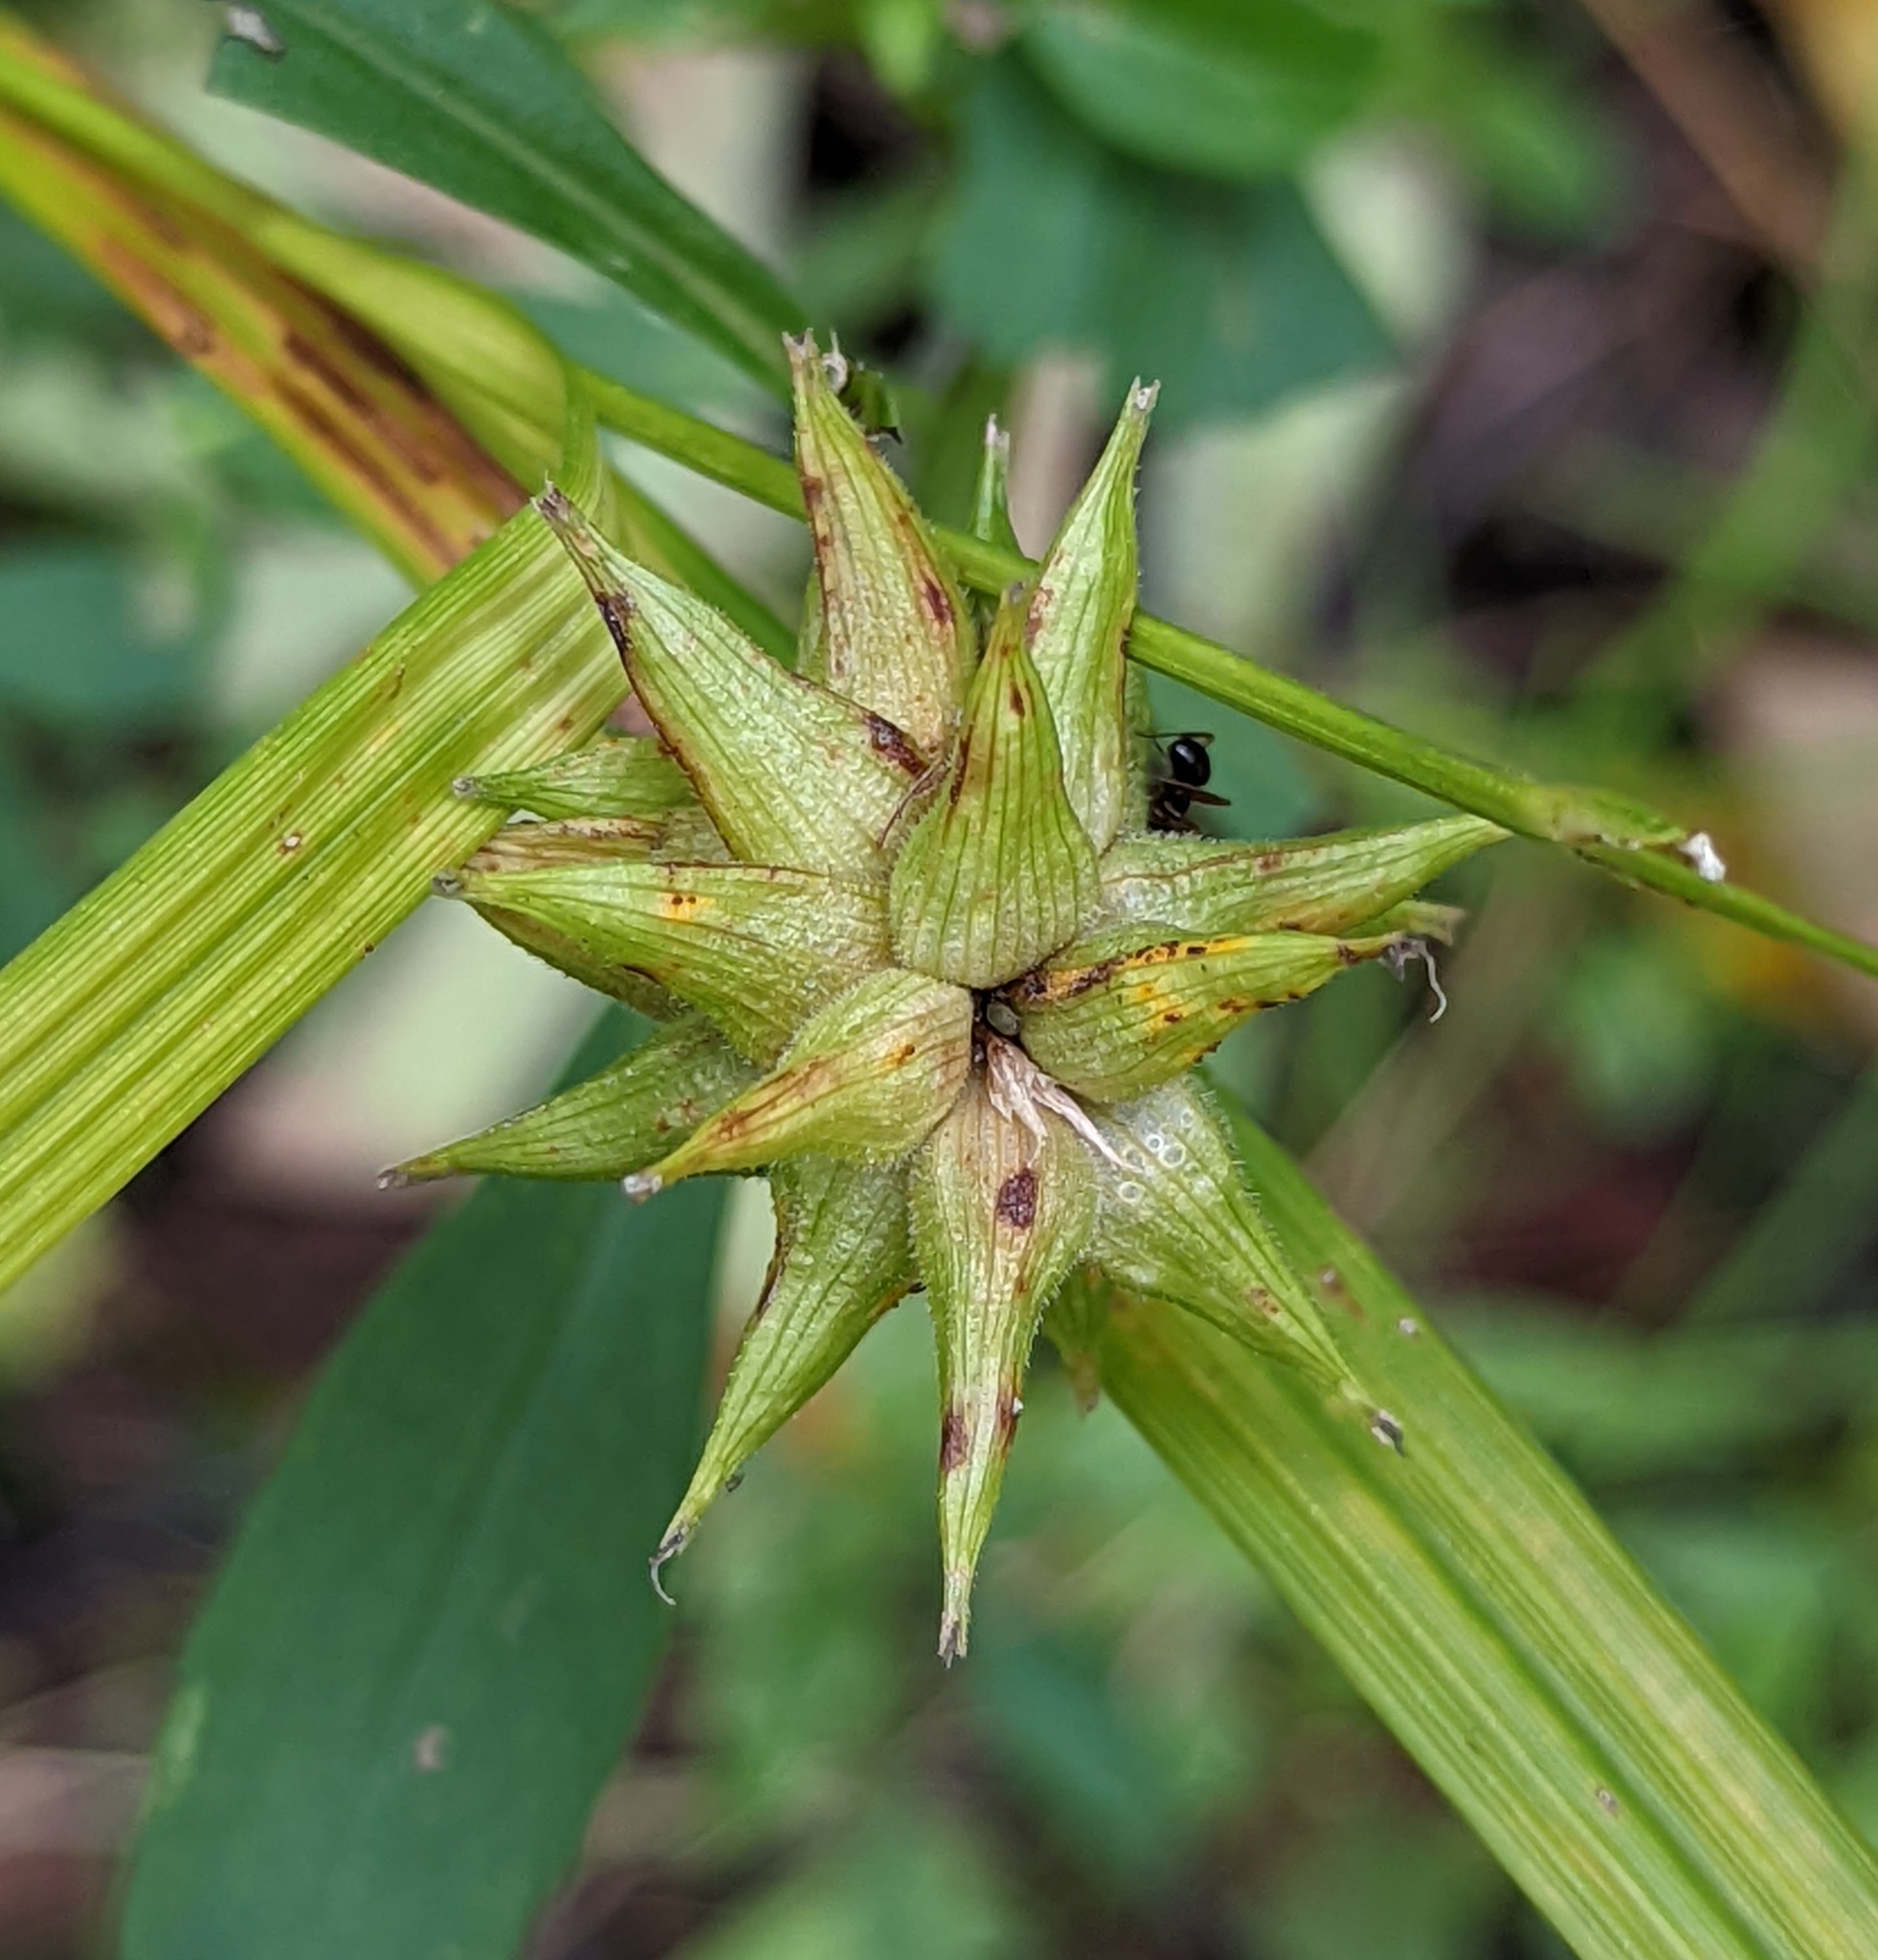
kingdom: Plantae
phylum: Tracheophyta
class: Liliopsida
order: Poales
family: Cyperaceae
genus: Carex
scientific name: Carex grayi
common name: Asa gray's sedge
